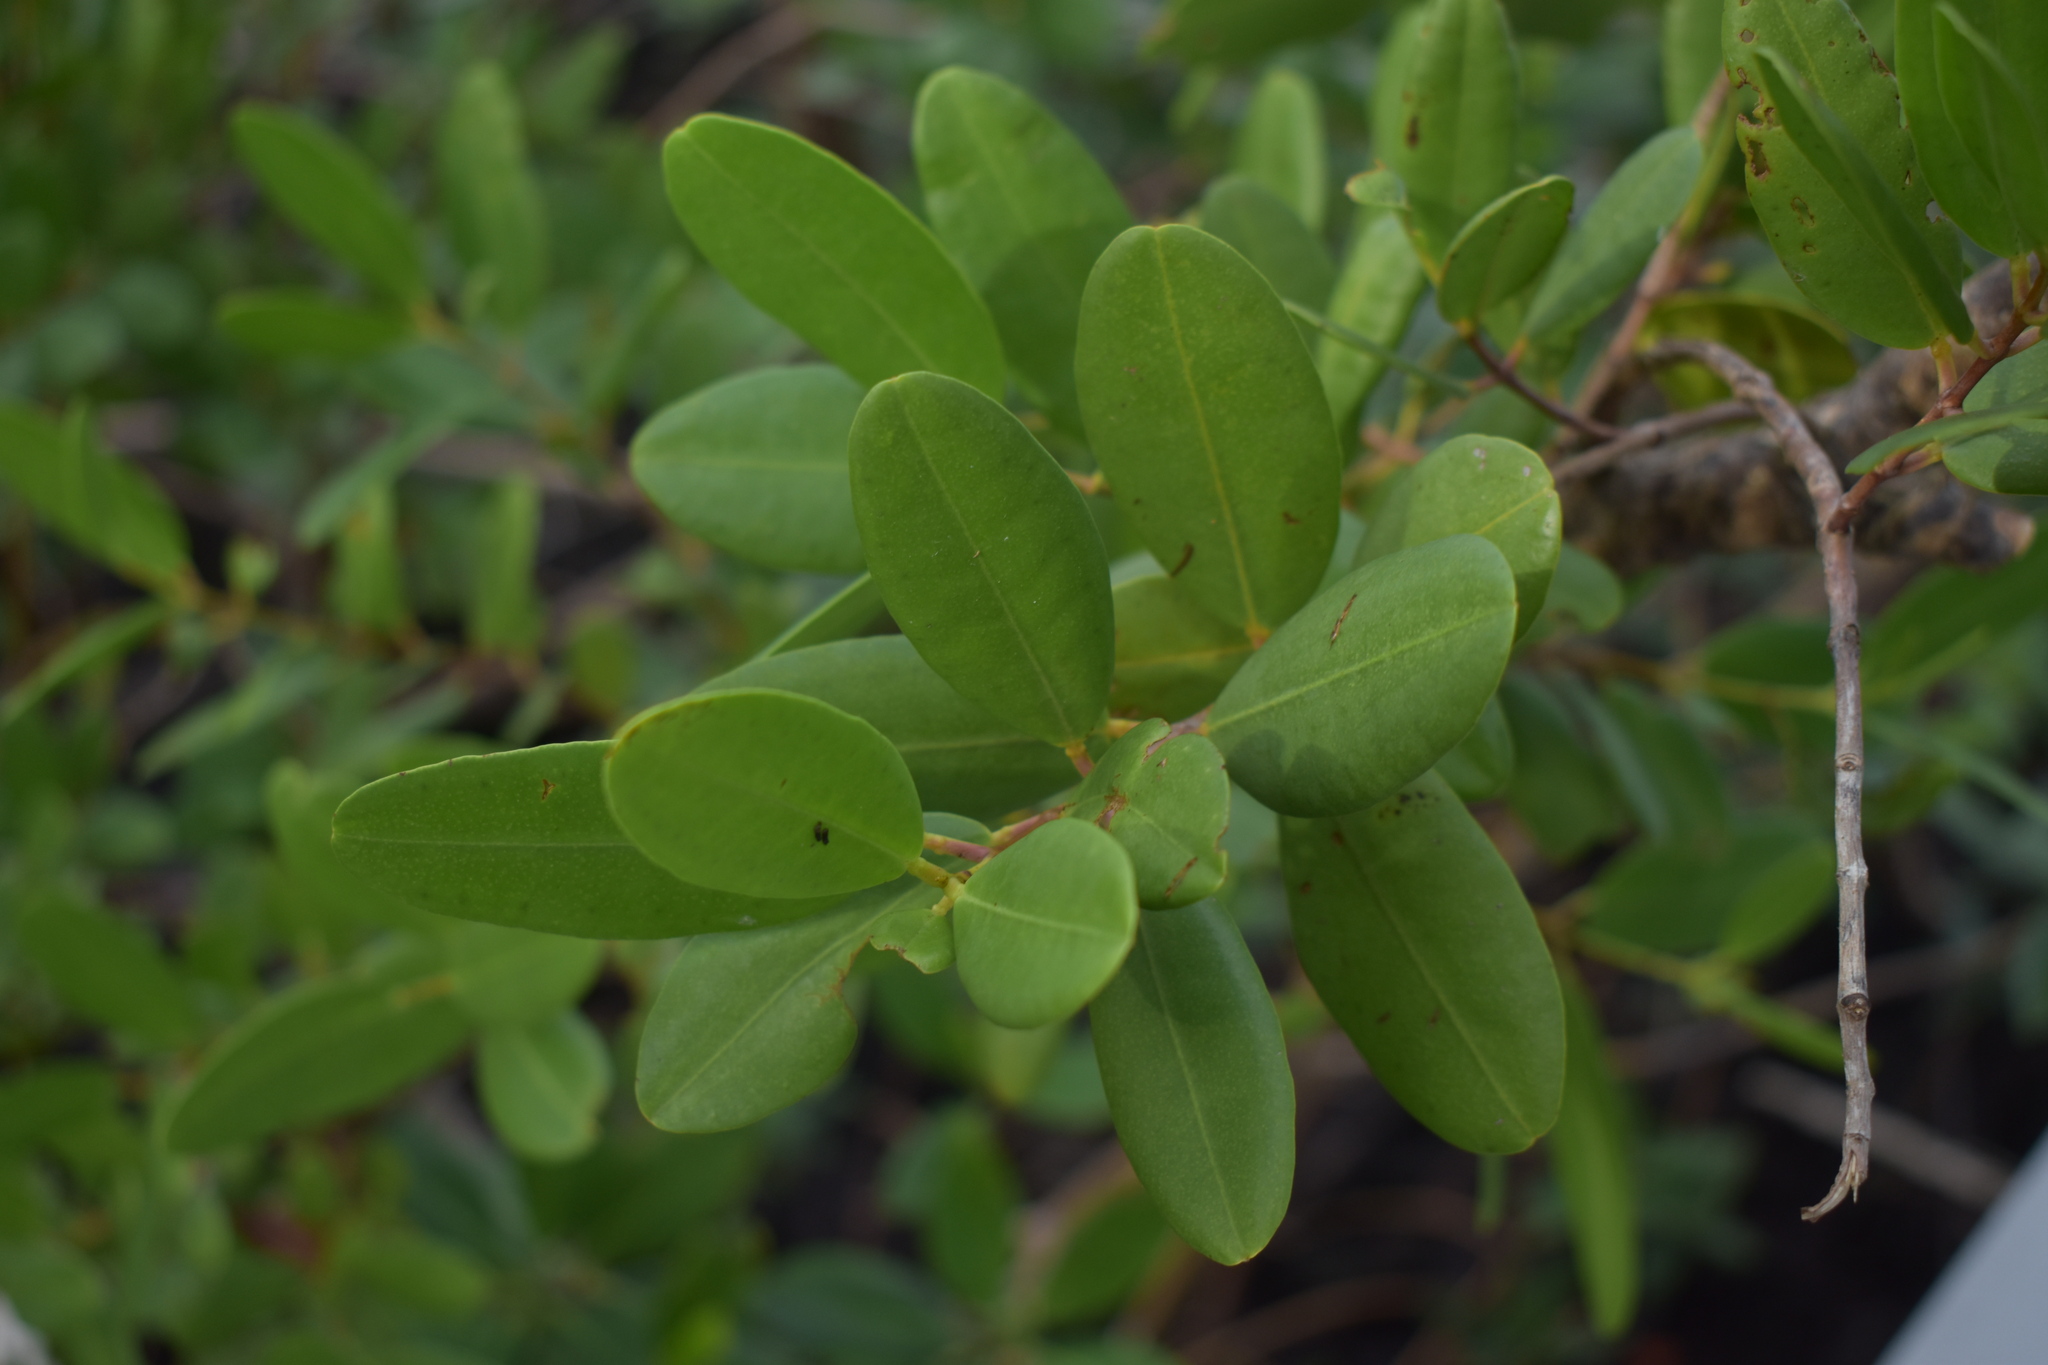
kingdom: Plantae
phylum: Tracheophyta
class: Magnoliopsida
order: Myrtales
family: Combretaceae
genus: Laguncularia
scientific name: Laguncularia racemosa
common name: White mangrove
